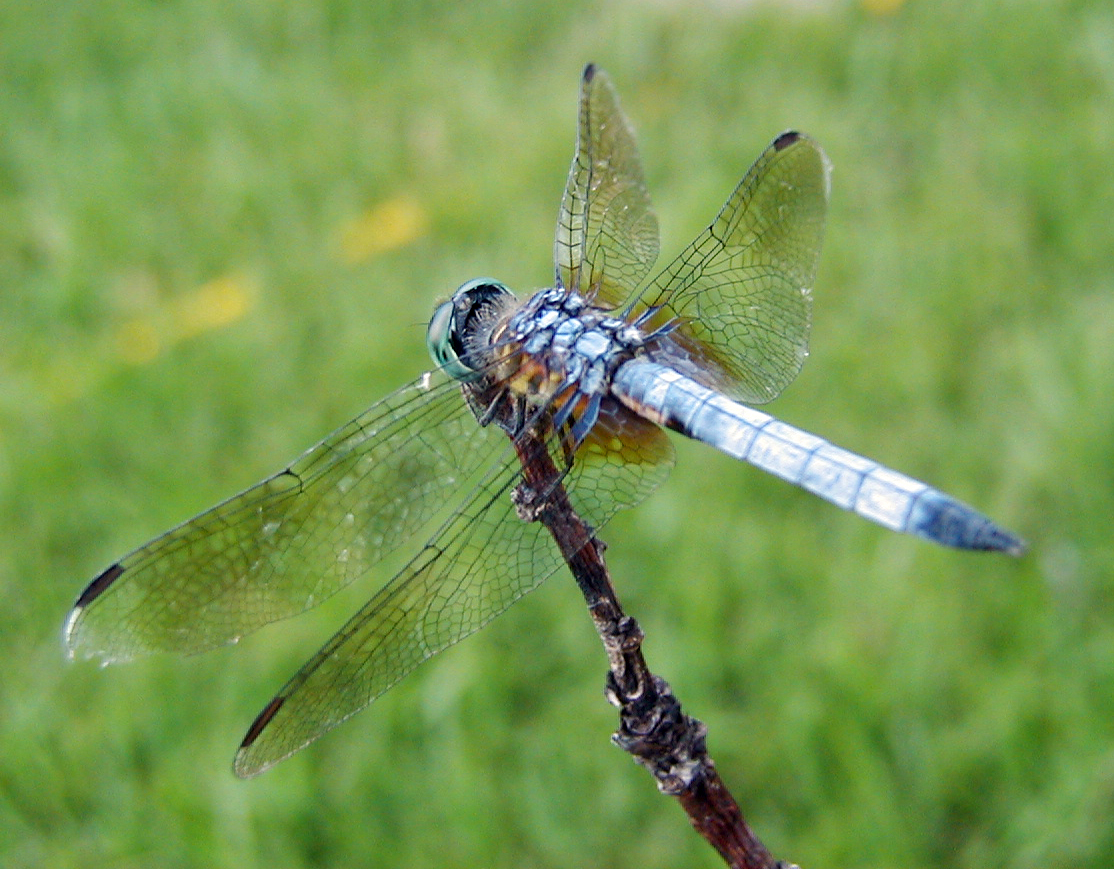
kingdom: Animalia
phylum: Arthropoda
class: Insecta
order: Odonata
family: Libellulidae
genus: Pachydiplax
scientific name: Pachydiplax longipennis
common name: Blue dasher
